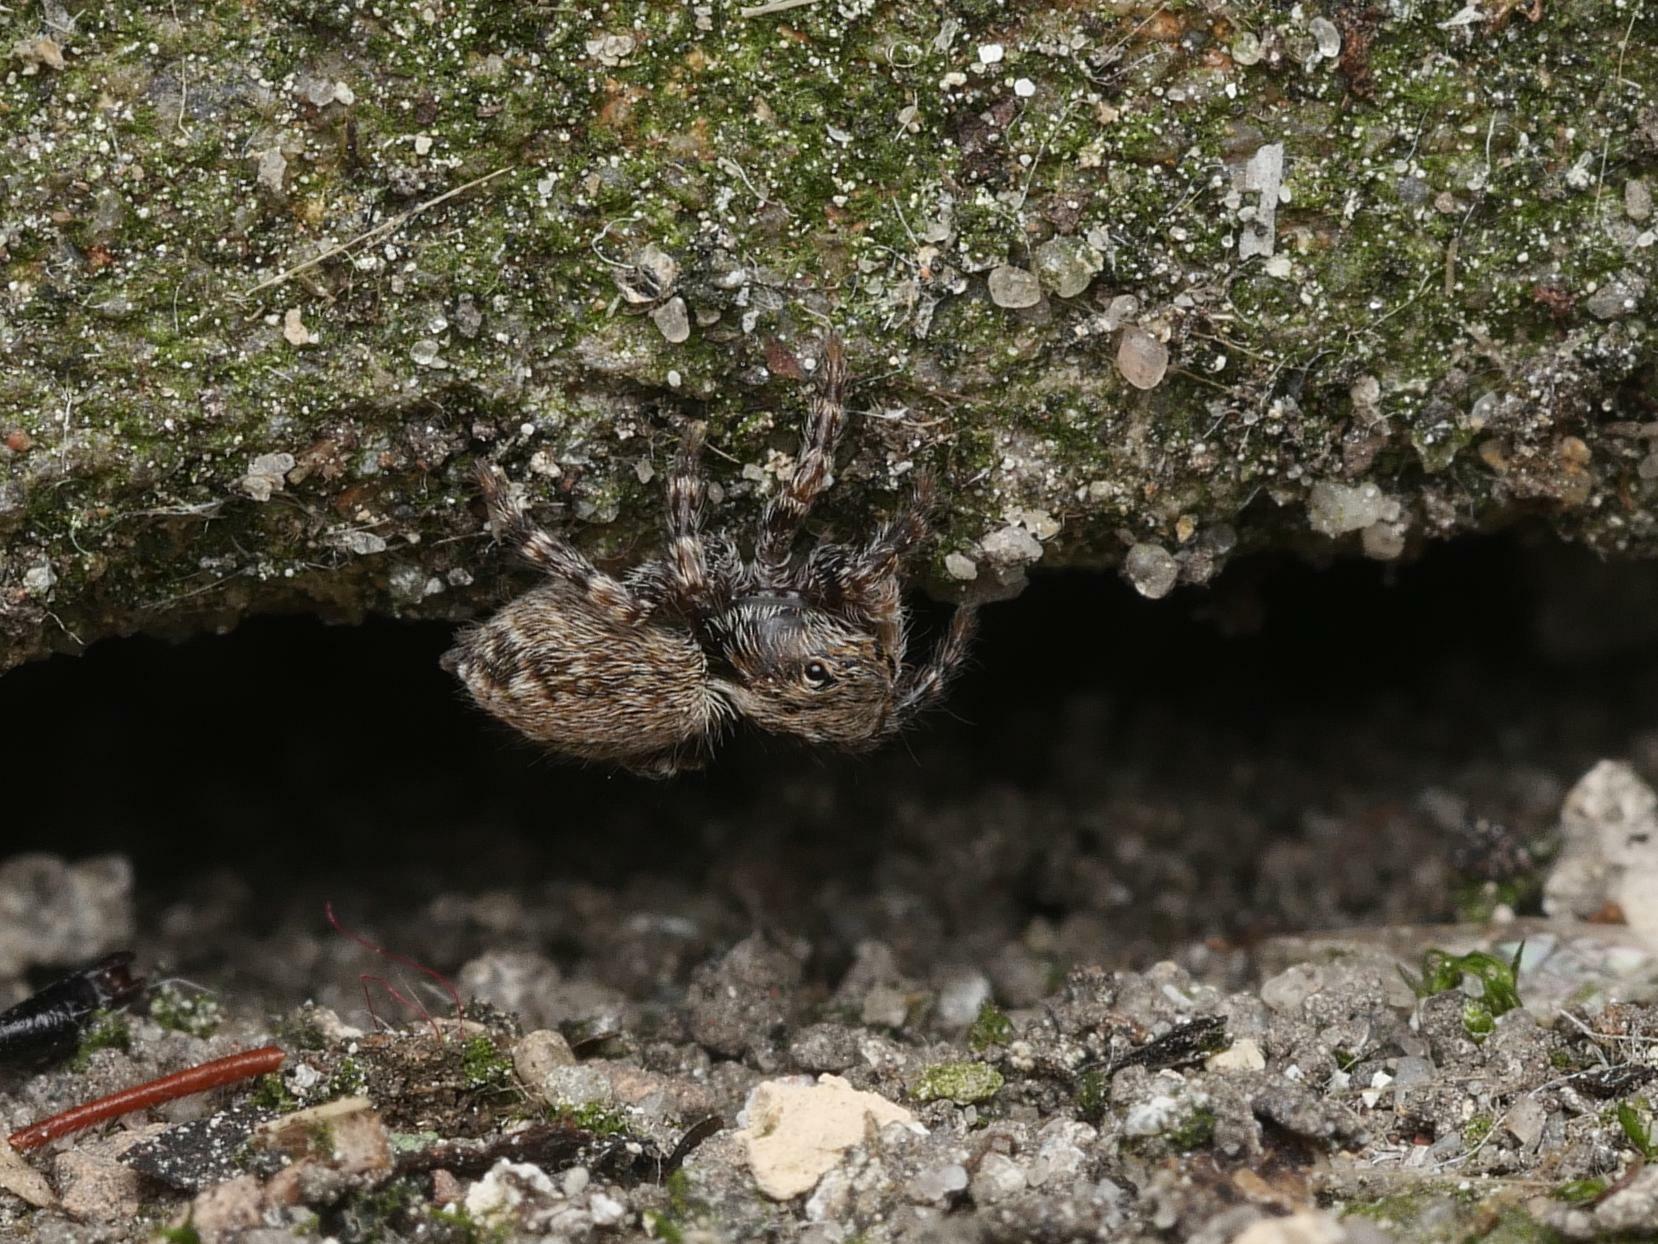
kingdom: Animalia
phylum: Arthropoda
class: Arachnida
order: Araneae
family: Salticidae
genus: Pseudeuophrys
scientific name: Pseudeuophrys lanigera
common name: Jumping spider
